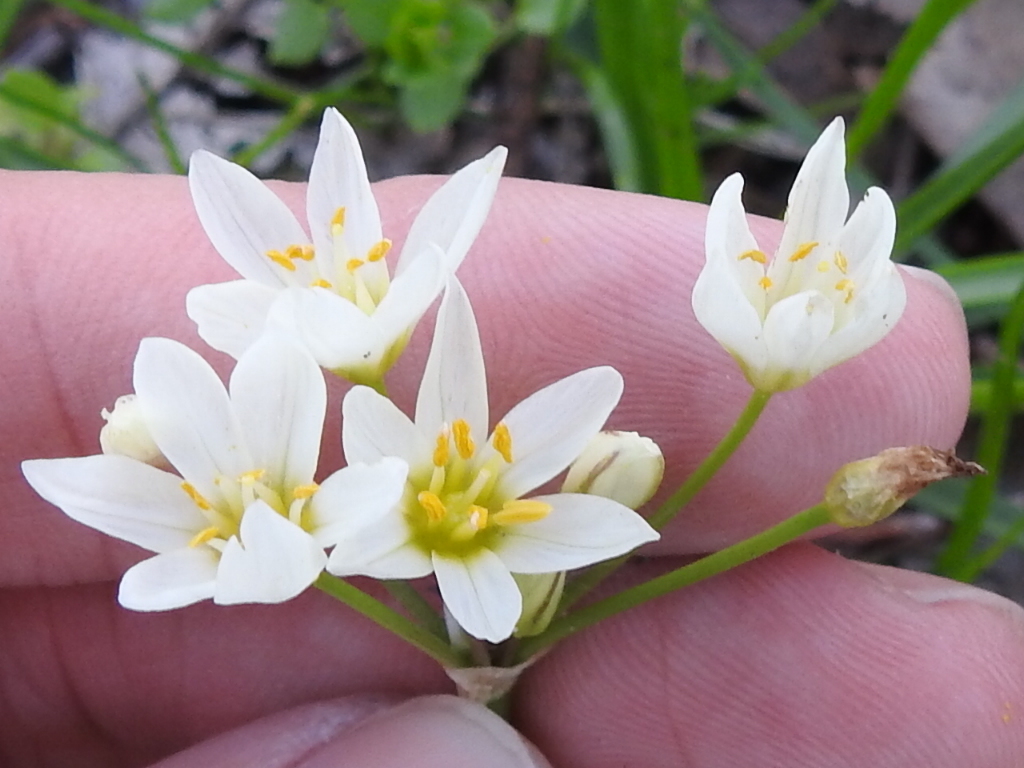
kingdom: Plantae
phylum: Tracheophyta
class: Liliopsida
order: Asparagales
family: Amaryllidaceae
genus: Nothoscordum
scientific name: Nothoscordum bivalve
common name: Crow-poison
